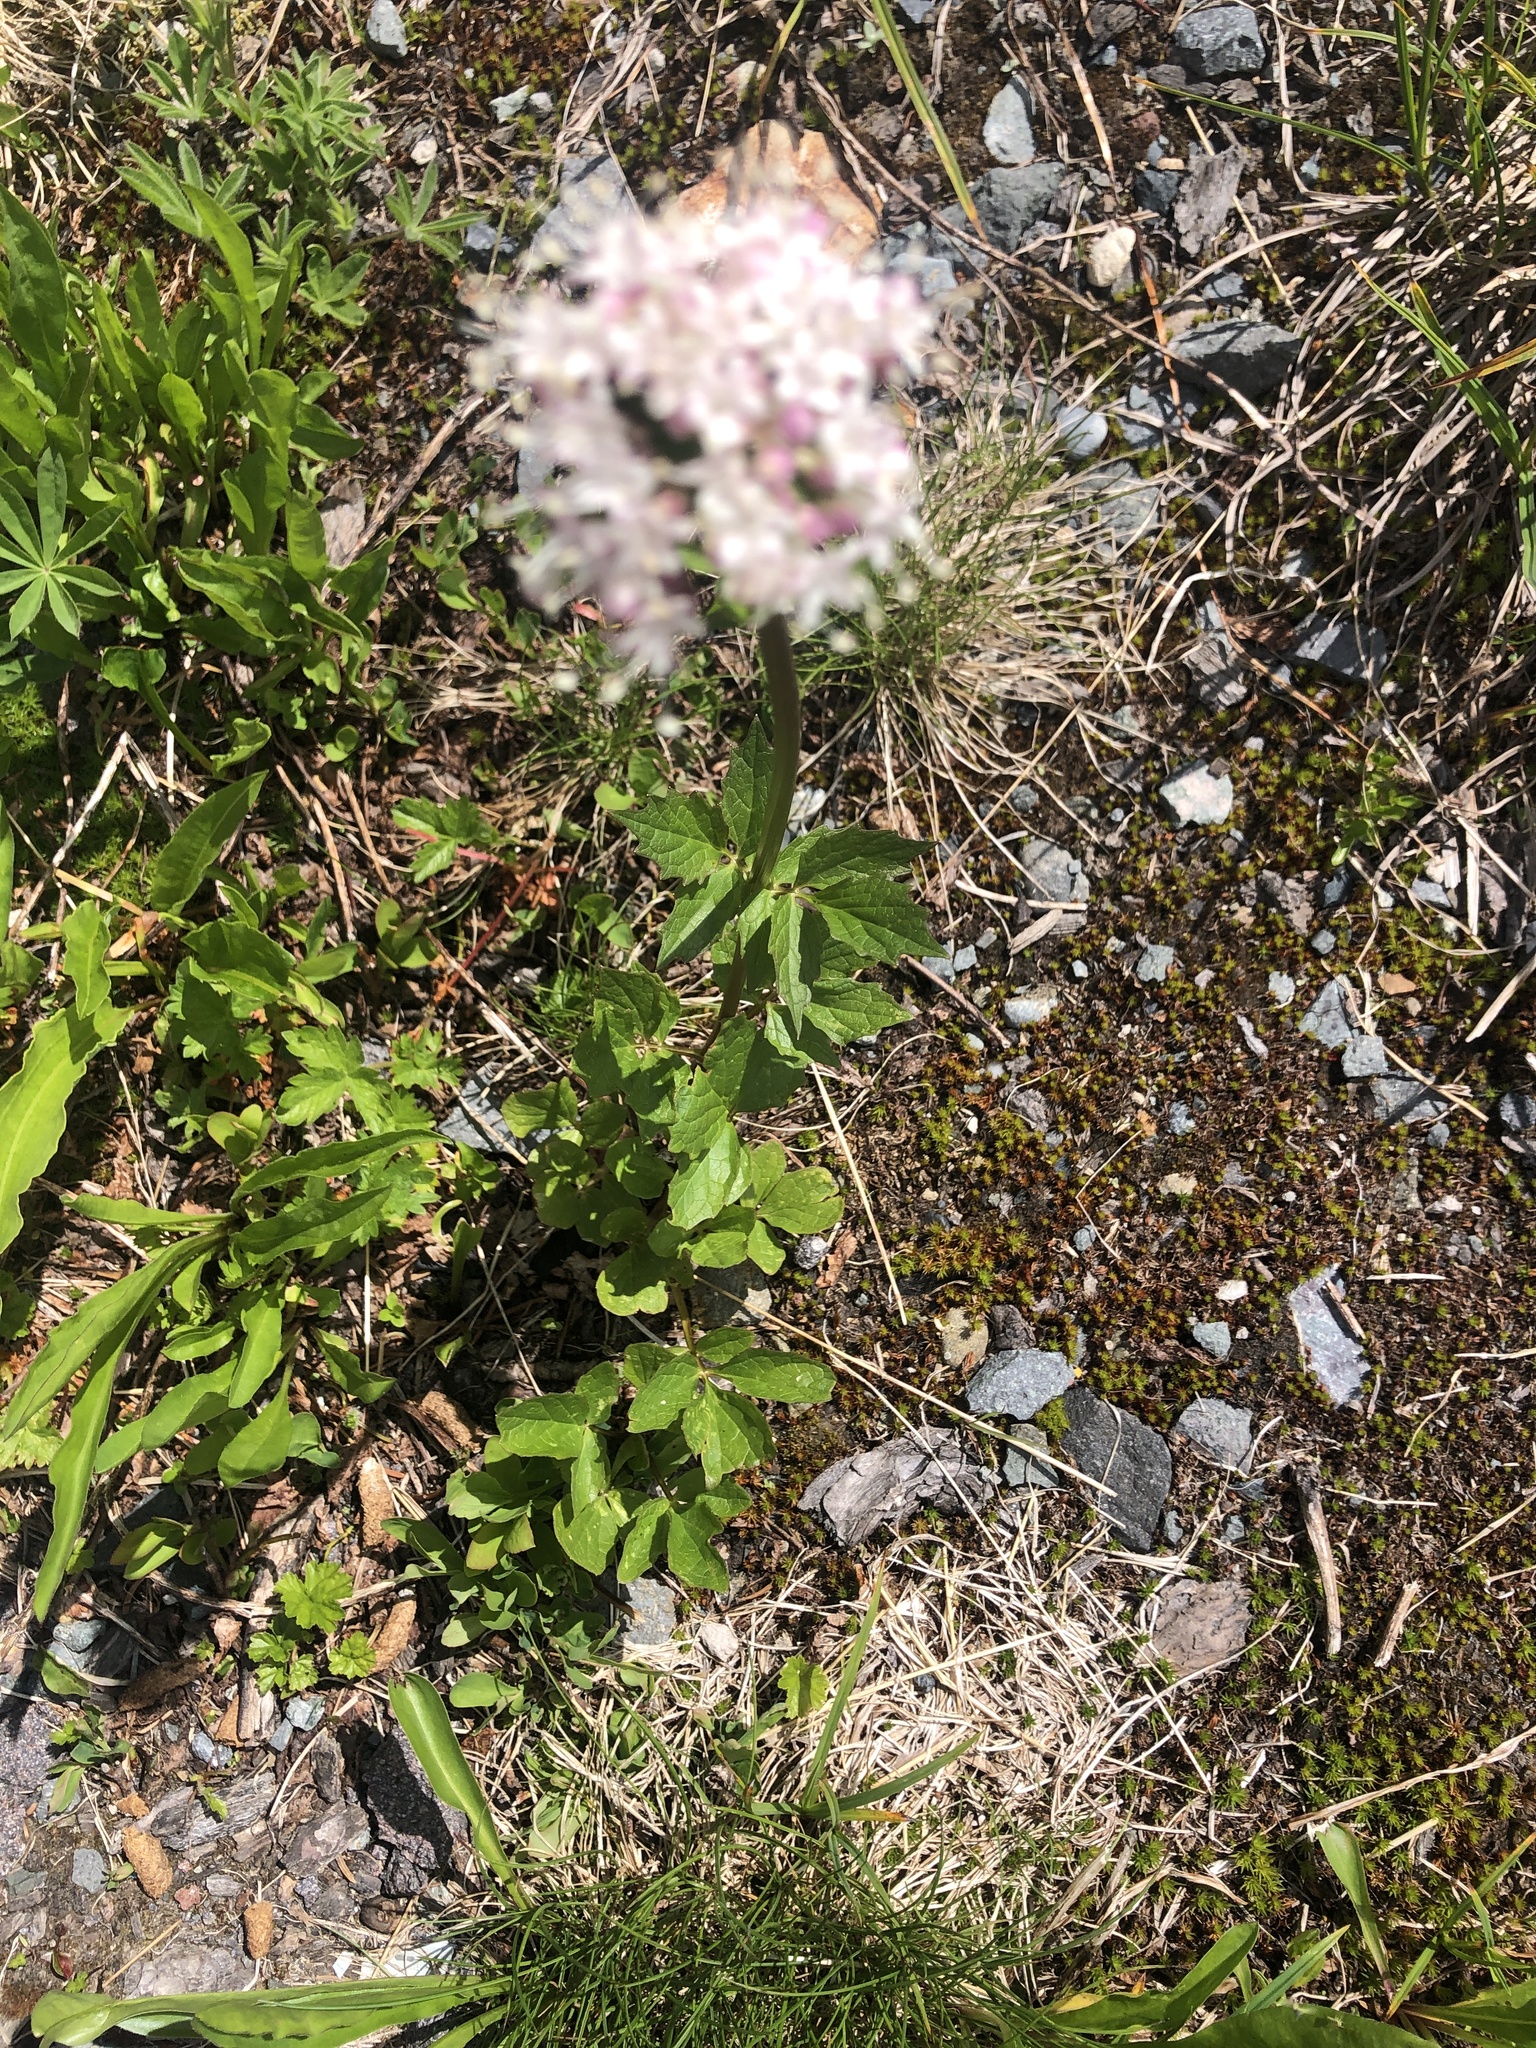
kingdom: Plantae
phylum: Tracheophyta
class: Magnoliopsida
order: Dipsacales
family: Caprifoliaceae
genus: Valeriana
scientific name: Valeriana sitchensis
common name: Pacific valerian
